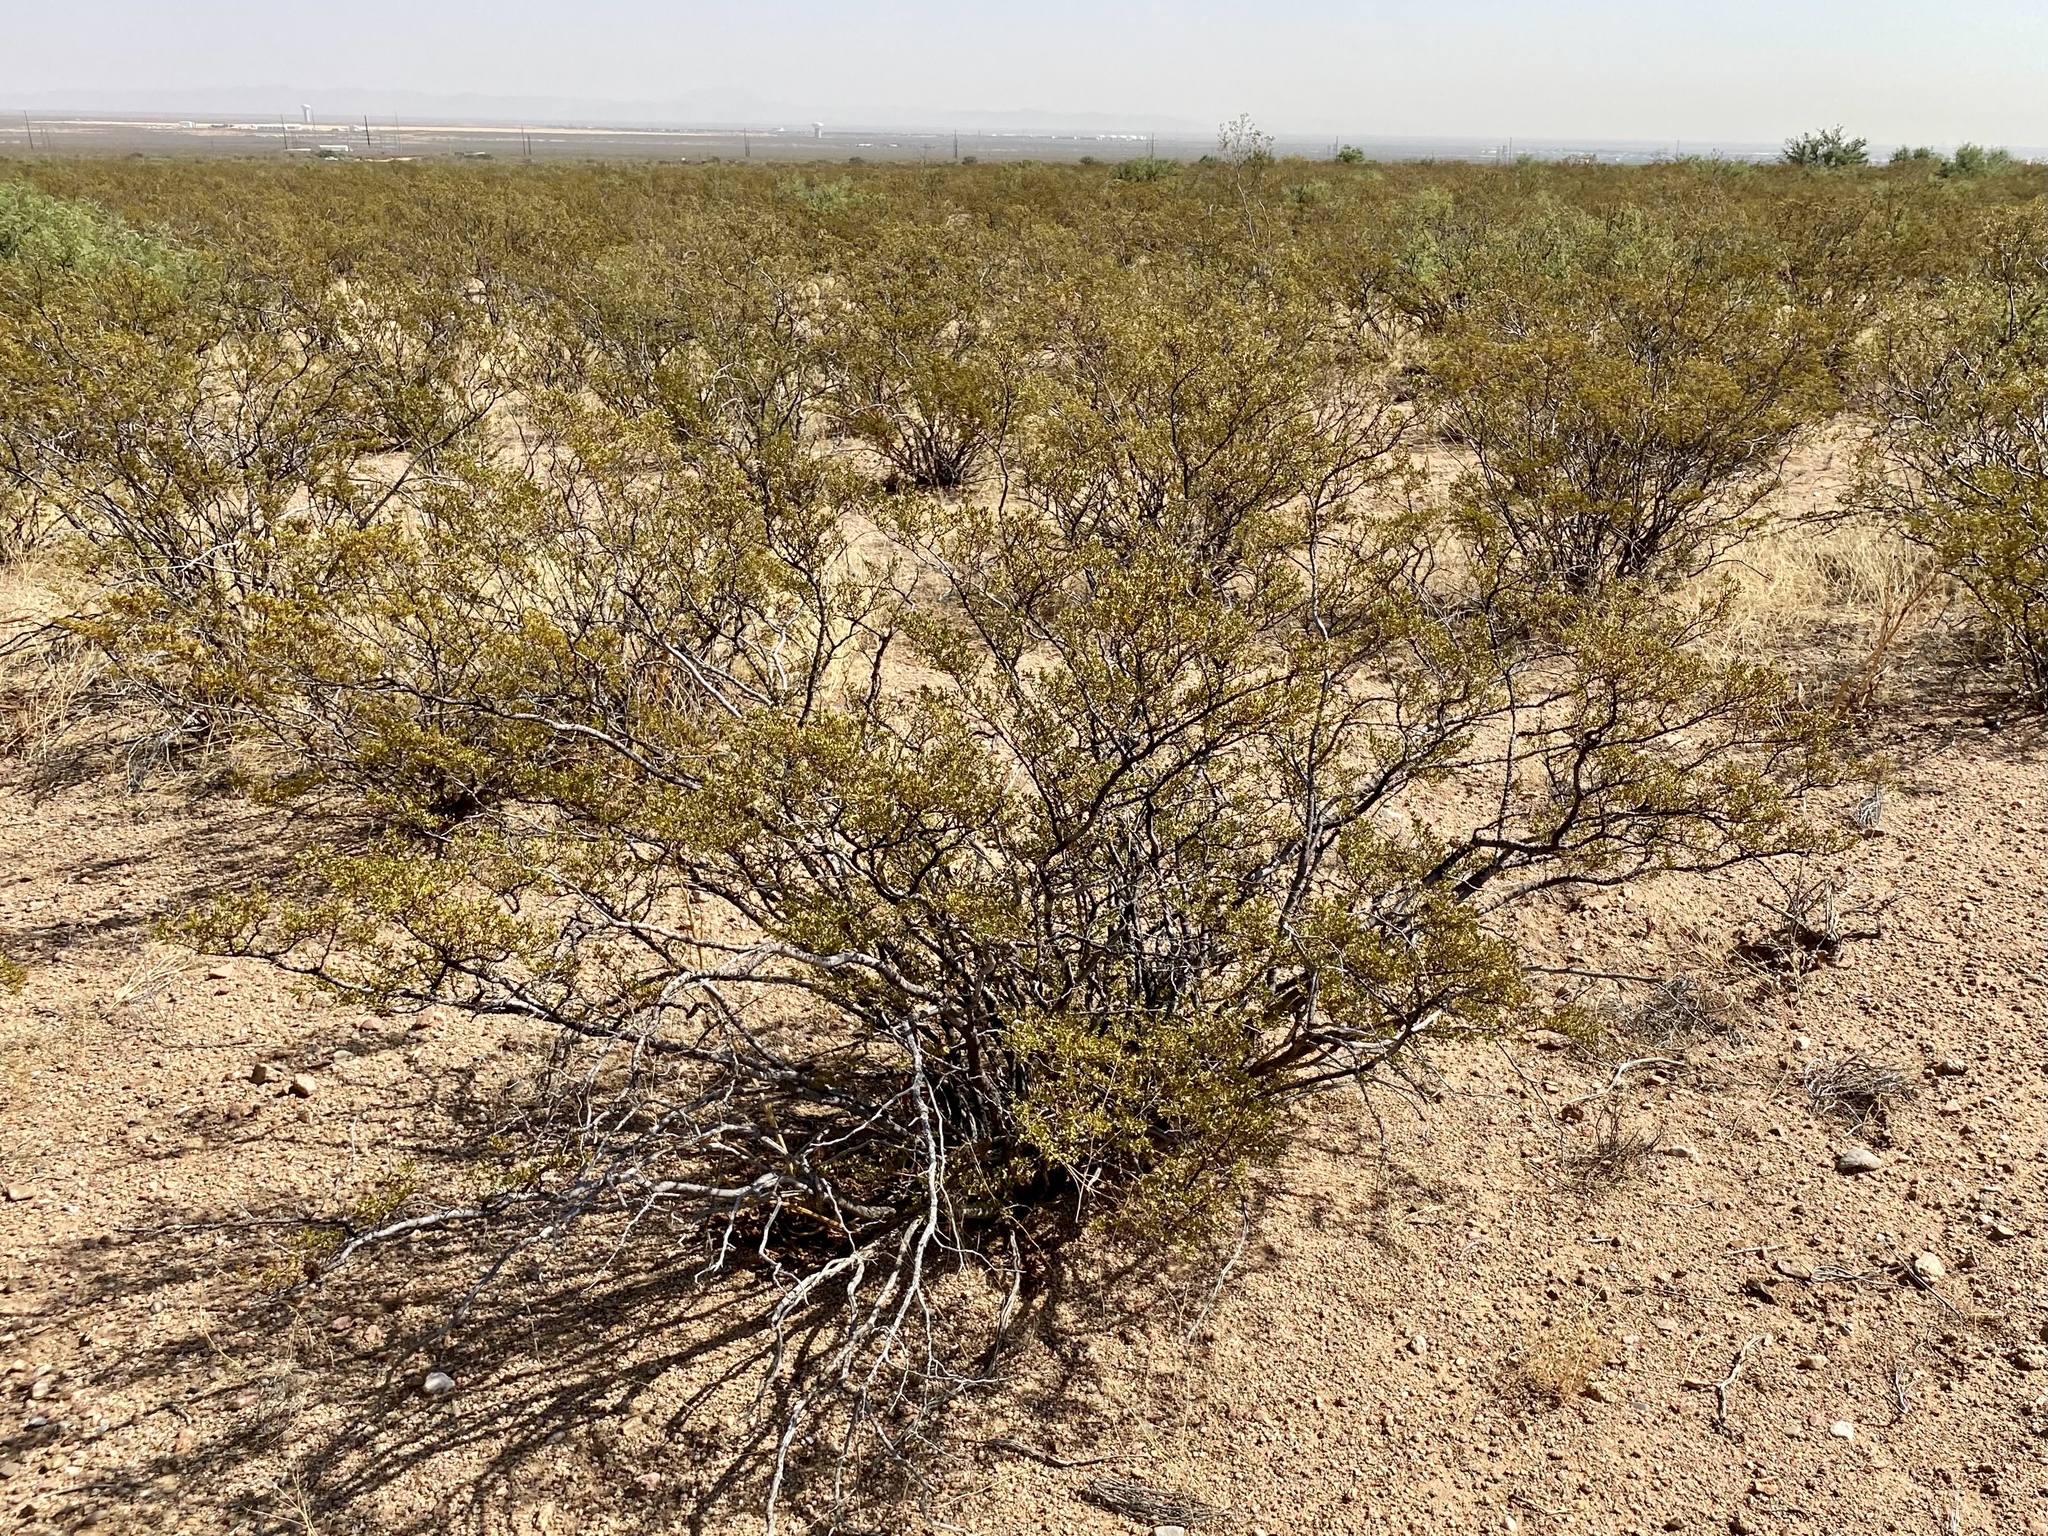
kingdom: Plantae
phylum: Tracheophyta
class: Magnoliopsida
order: Zygophyllales
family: Zygophyllaceae
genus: Larrea
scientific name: Larrea tridentata
